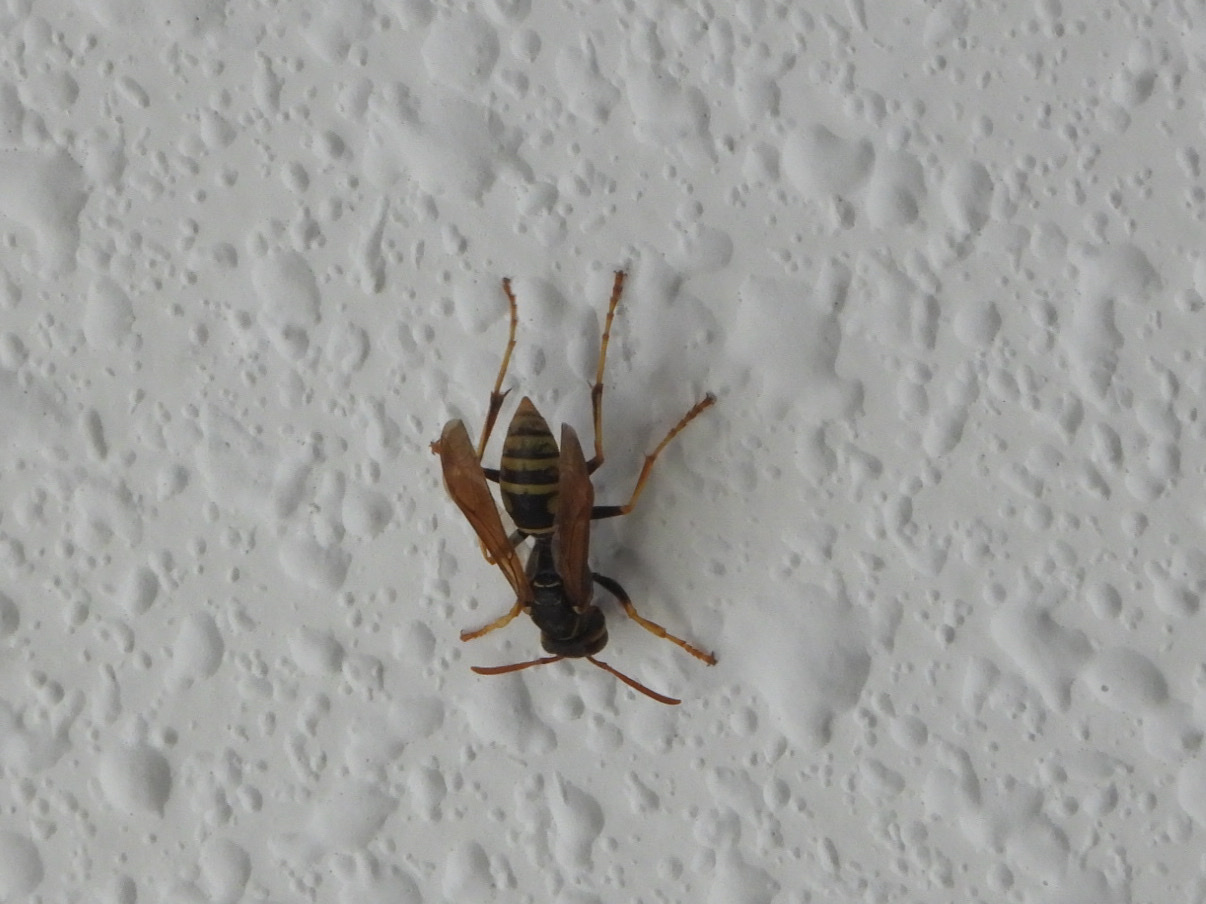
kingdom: Animalia
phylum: Arthropoda
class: Insecta
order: Hymenoptera
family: Eumenidae
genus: Polistes
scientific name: Polistes aurifer
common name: Paper wasp
